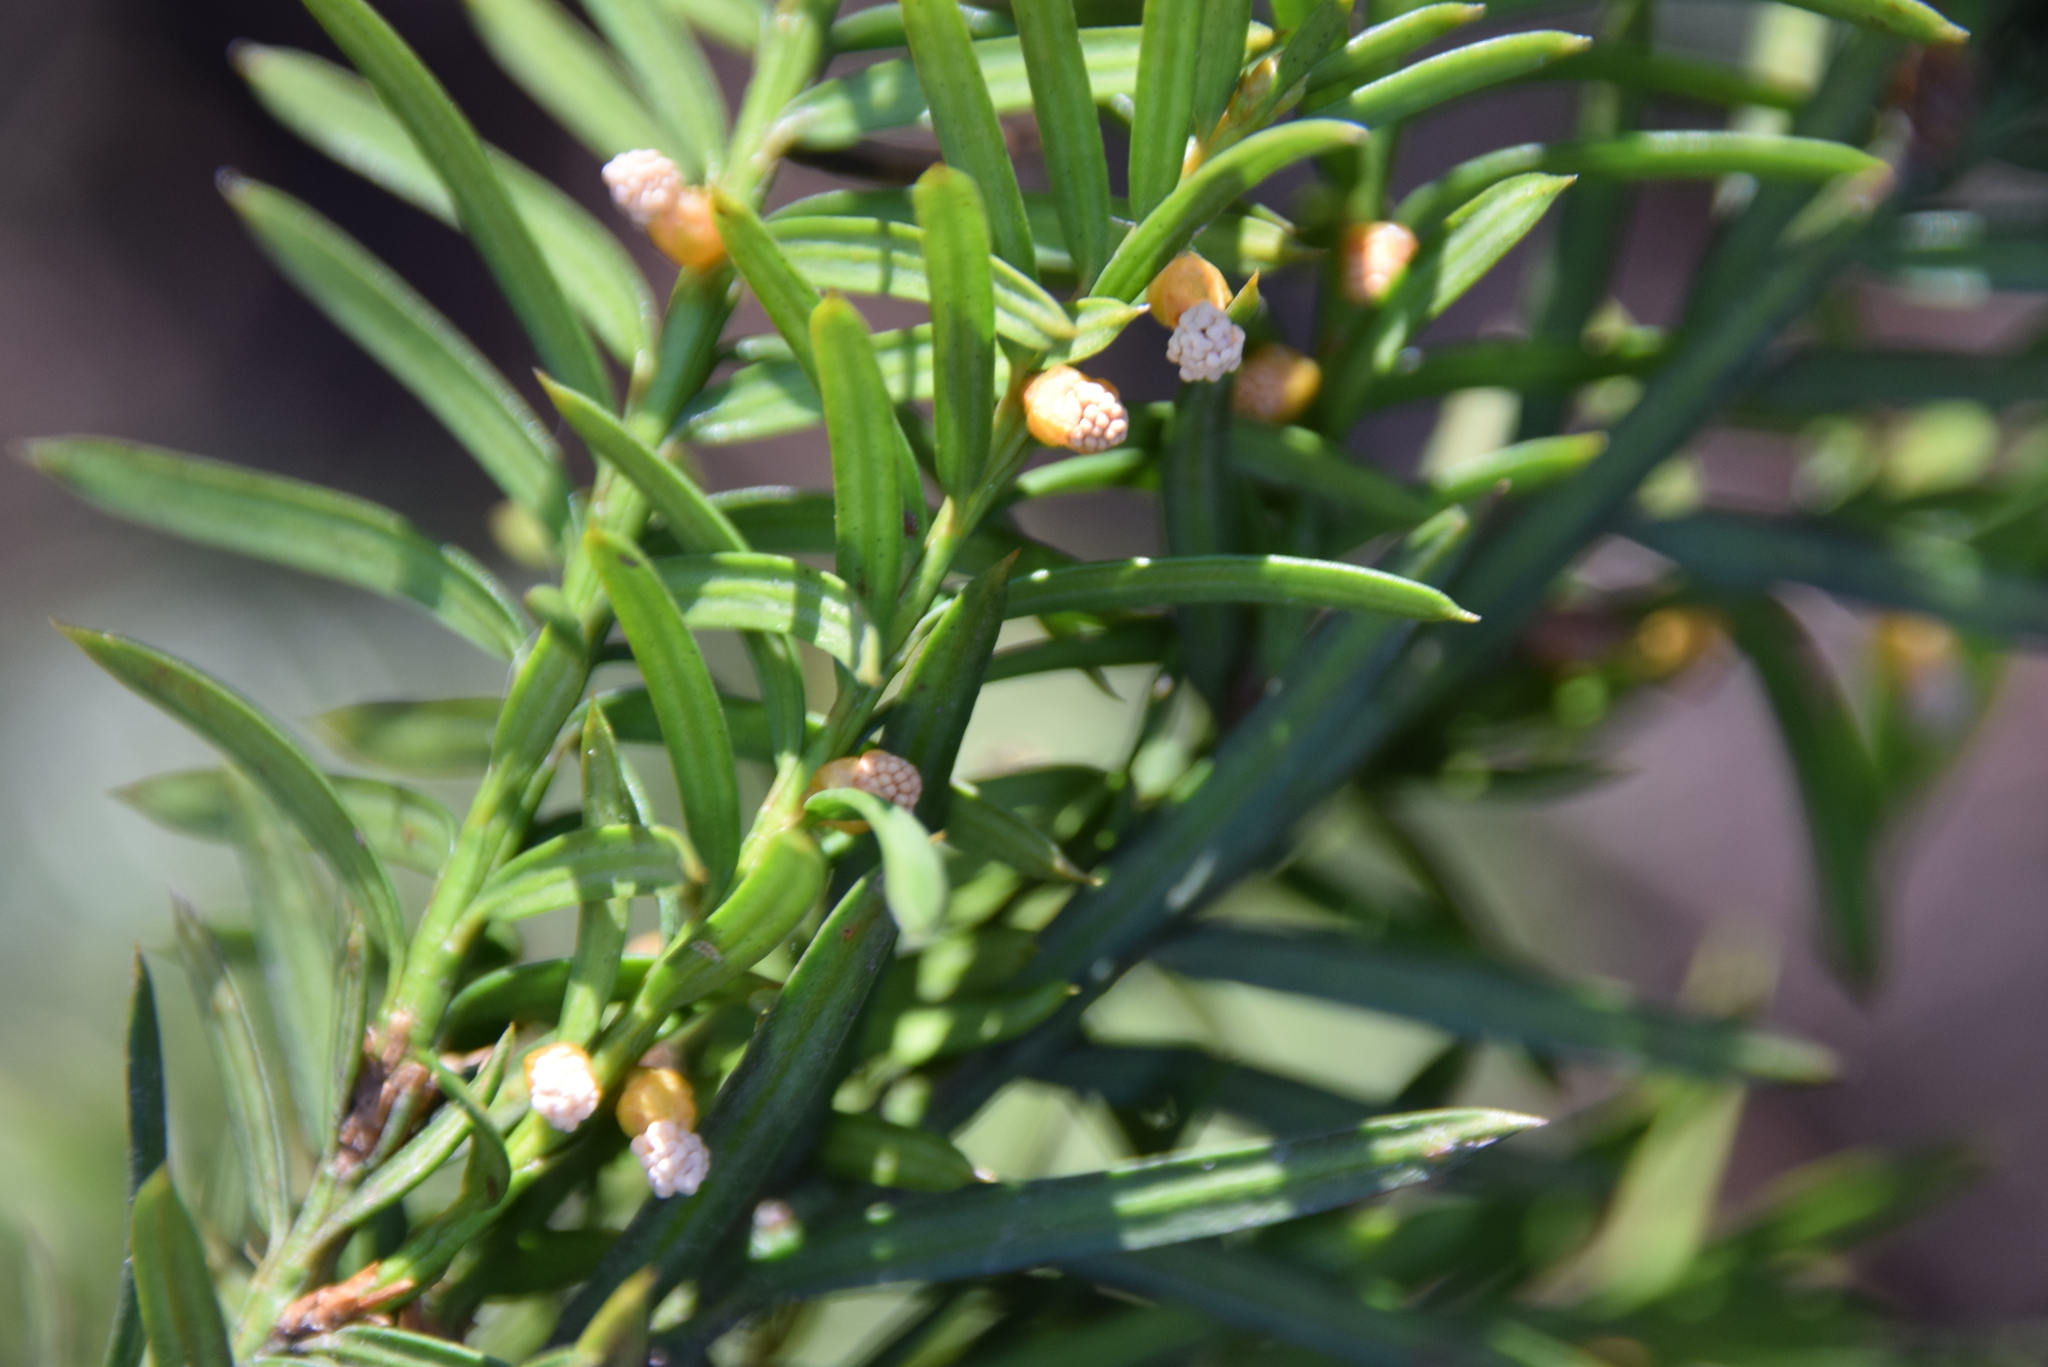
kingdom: Plantae
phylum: Tracheophyta
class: Pinopsida
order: Pinales
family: Taxaceae
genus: Taxus
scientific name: Taxus canadensis
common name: American yew
